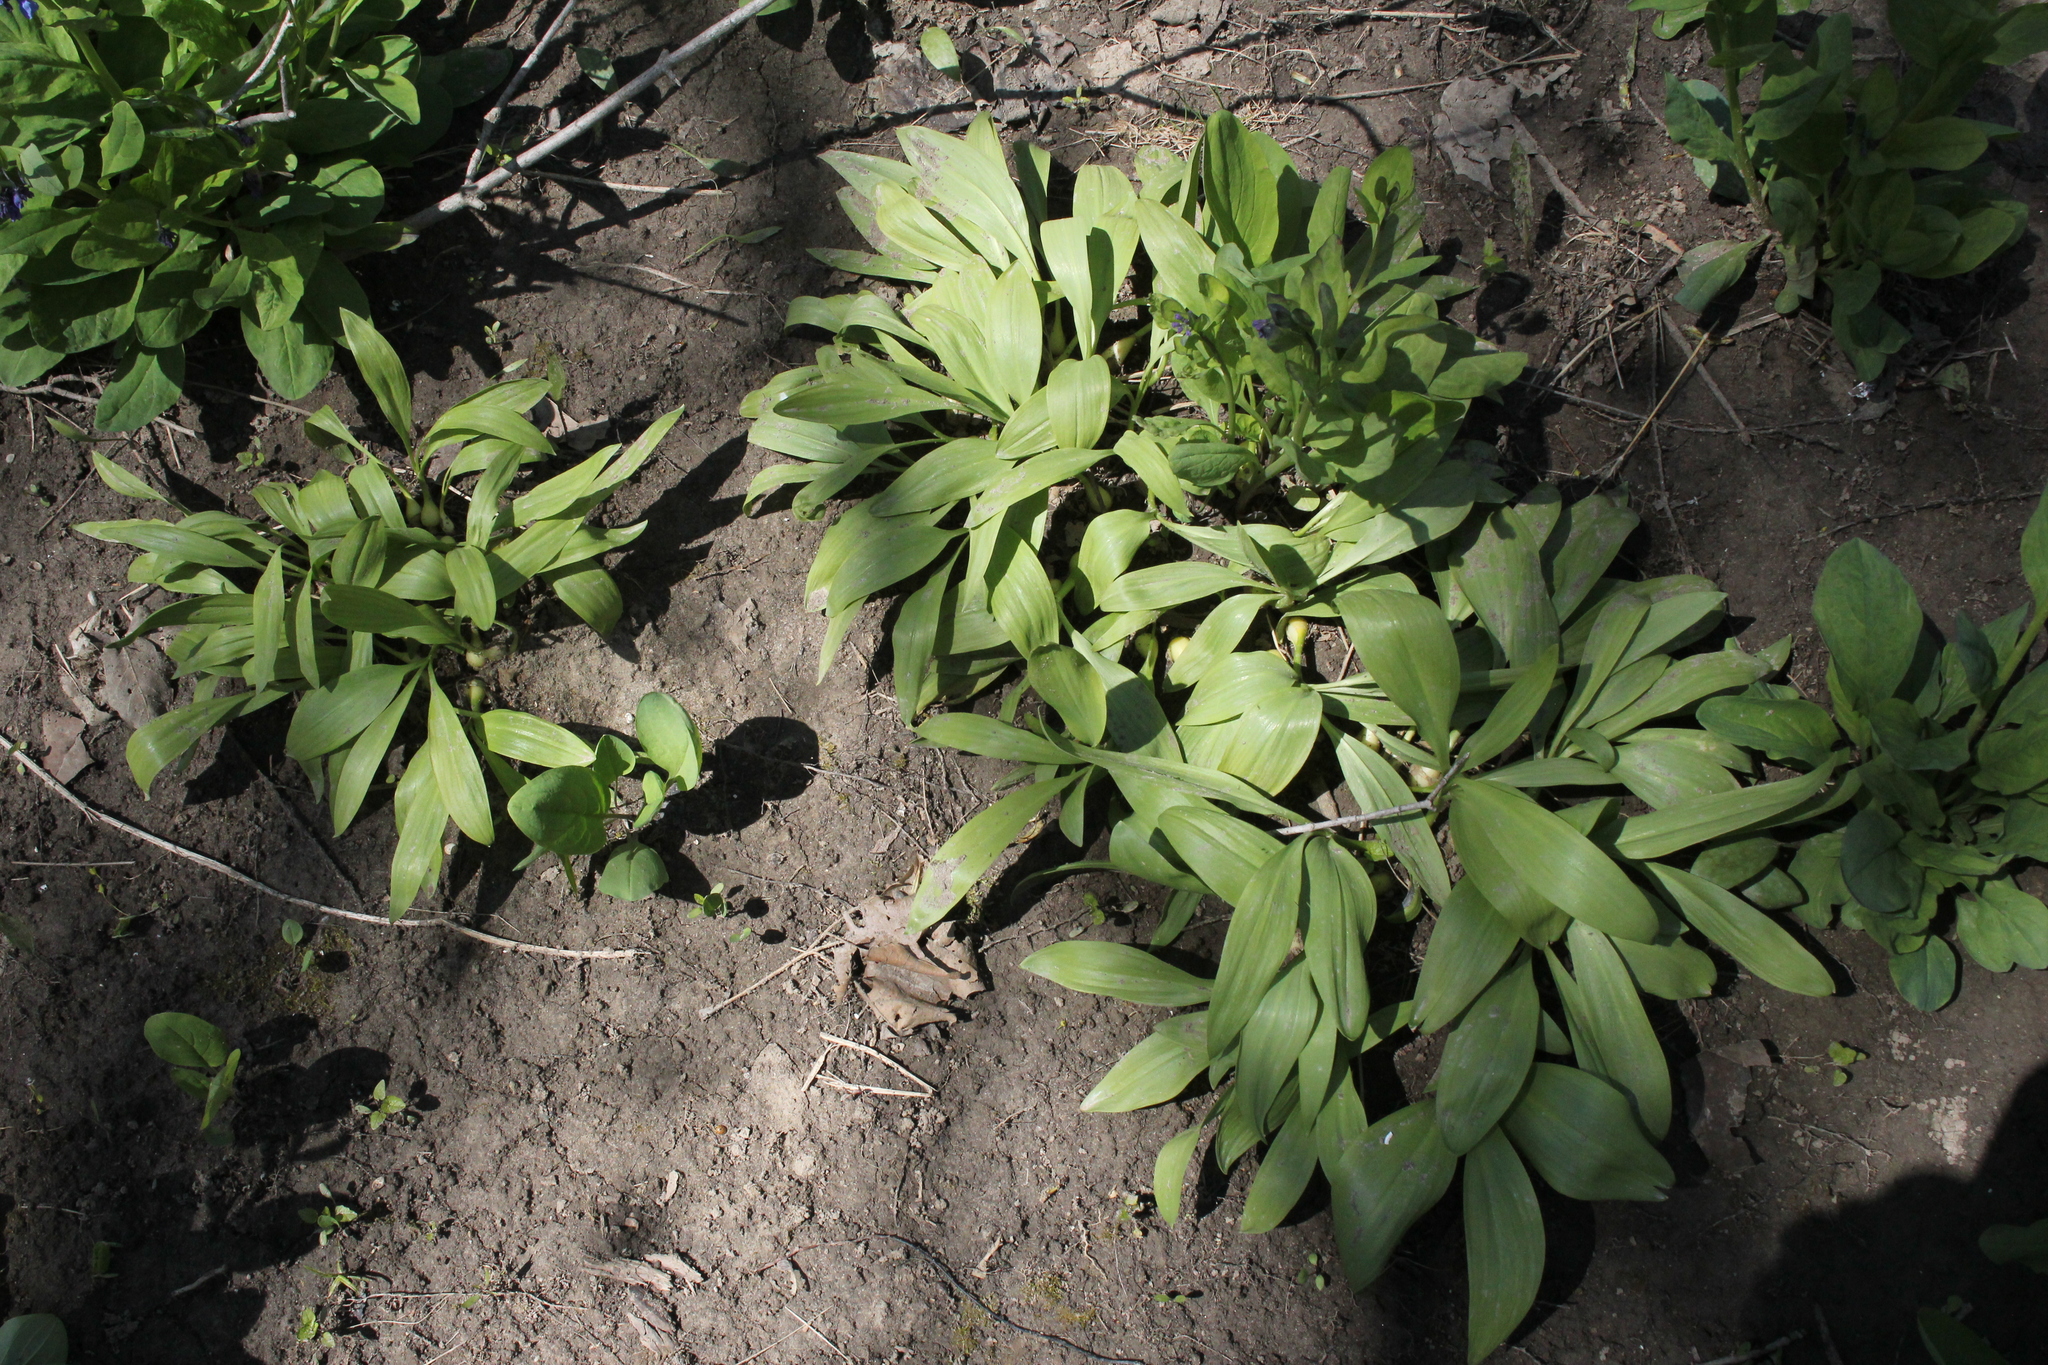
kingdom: Plantae
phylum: Tracheophyta
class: Liliopsida
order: Asparagales
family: Amaryllidaceae
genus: Allium
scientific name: Allium tricoccum
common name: Ramp
